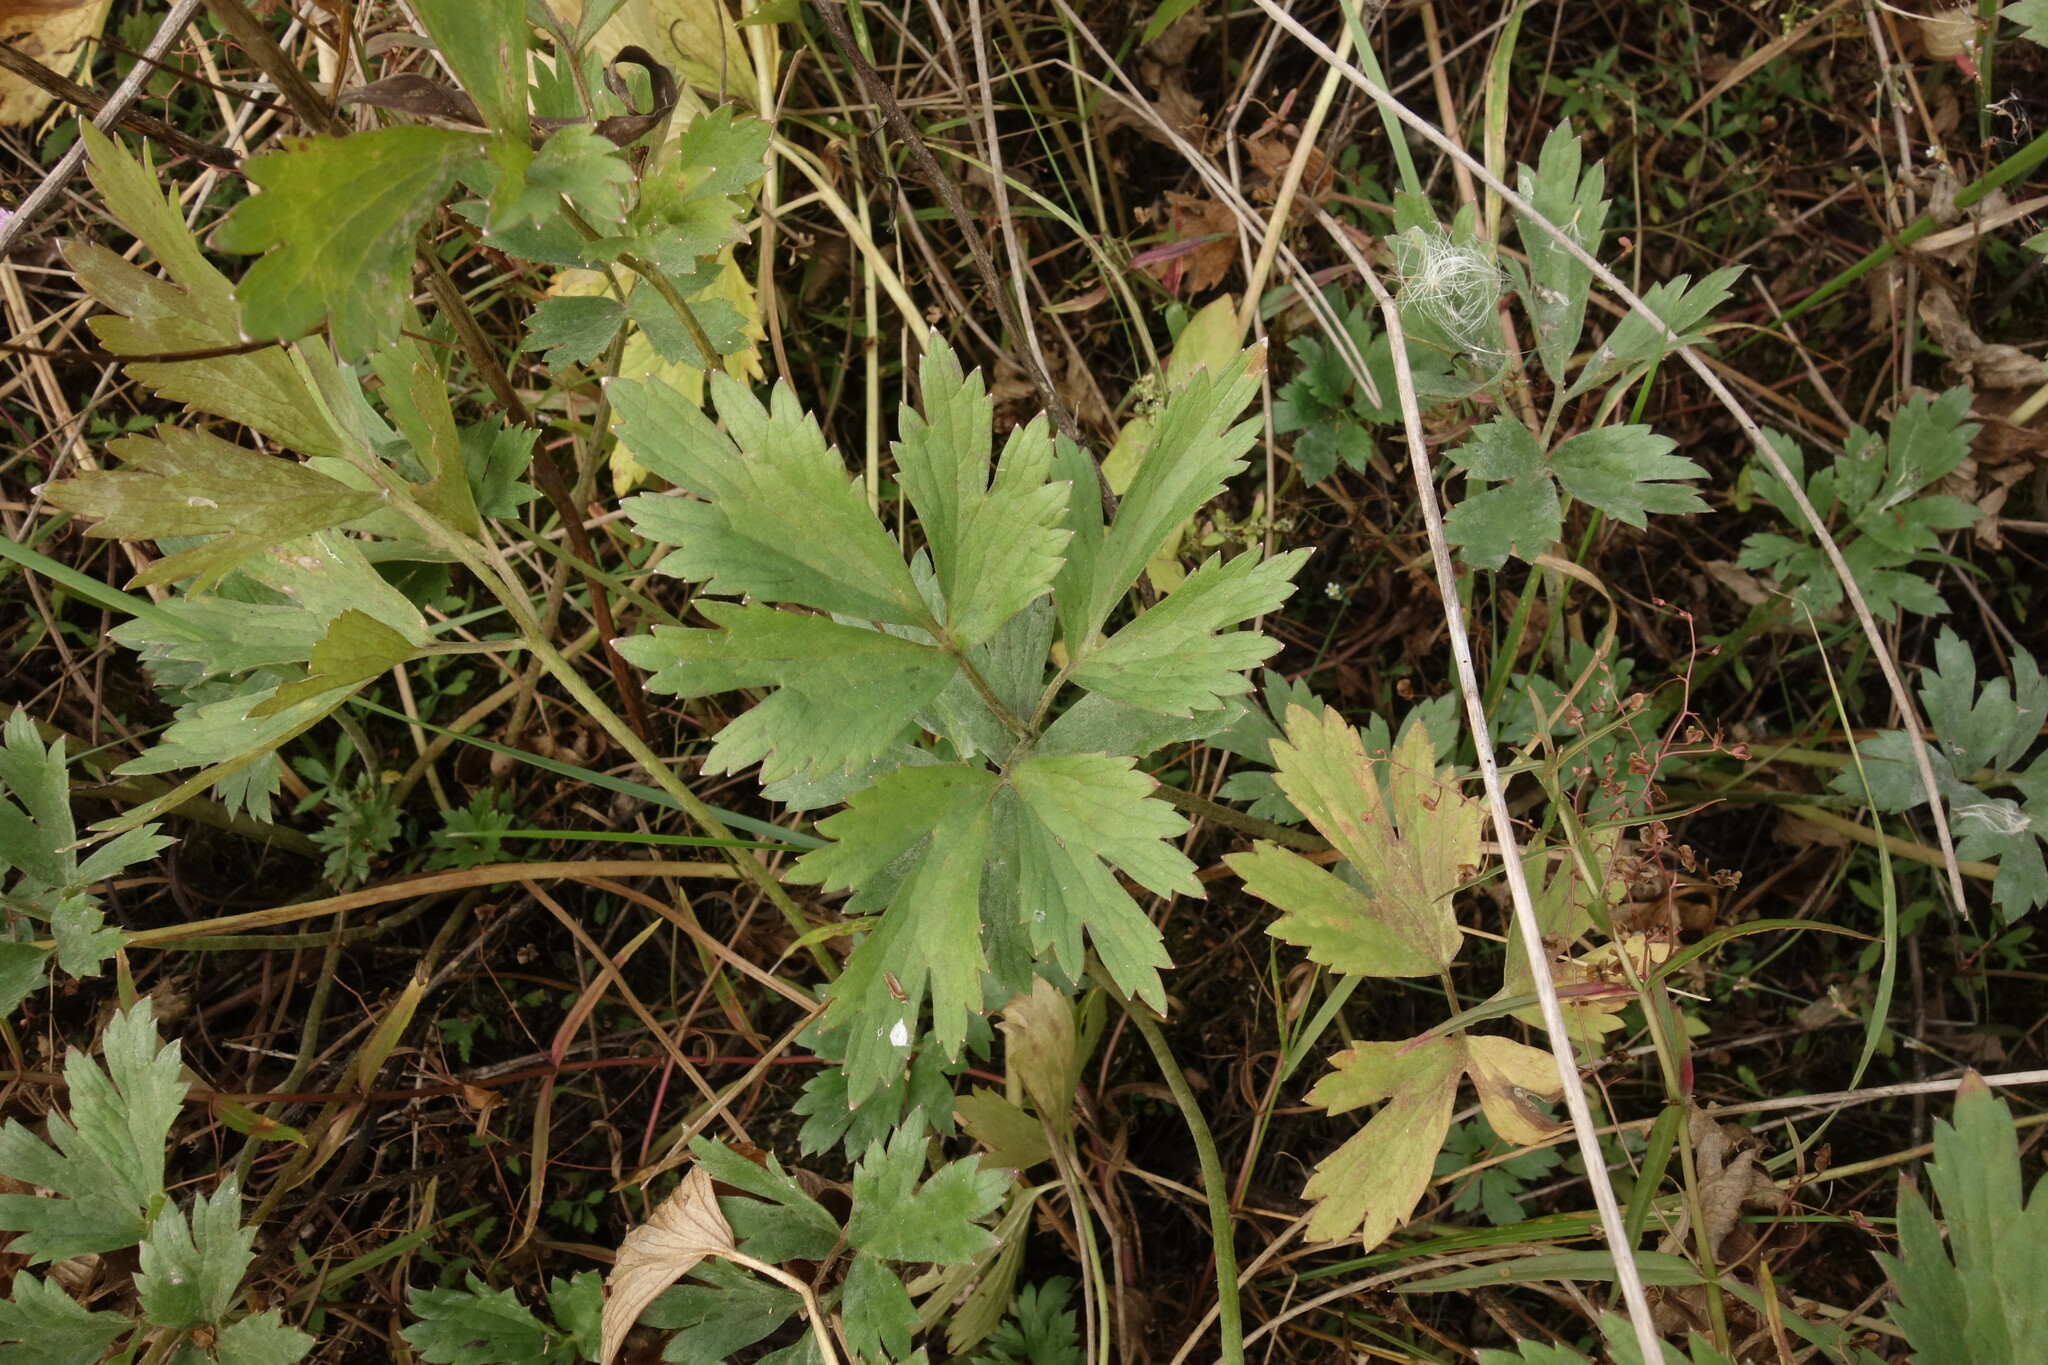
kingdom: Plantae
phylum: Tracheophyta
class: Magnoliopsida
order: Ranunculales
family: Ranunculaceae
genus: Ranunculus
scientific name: Ranunculus repens
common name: Creeping buttercup
